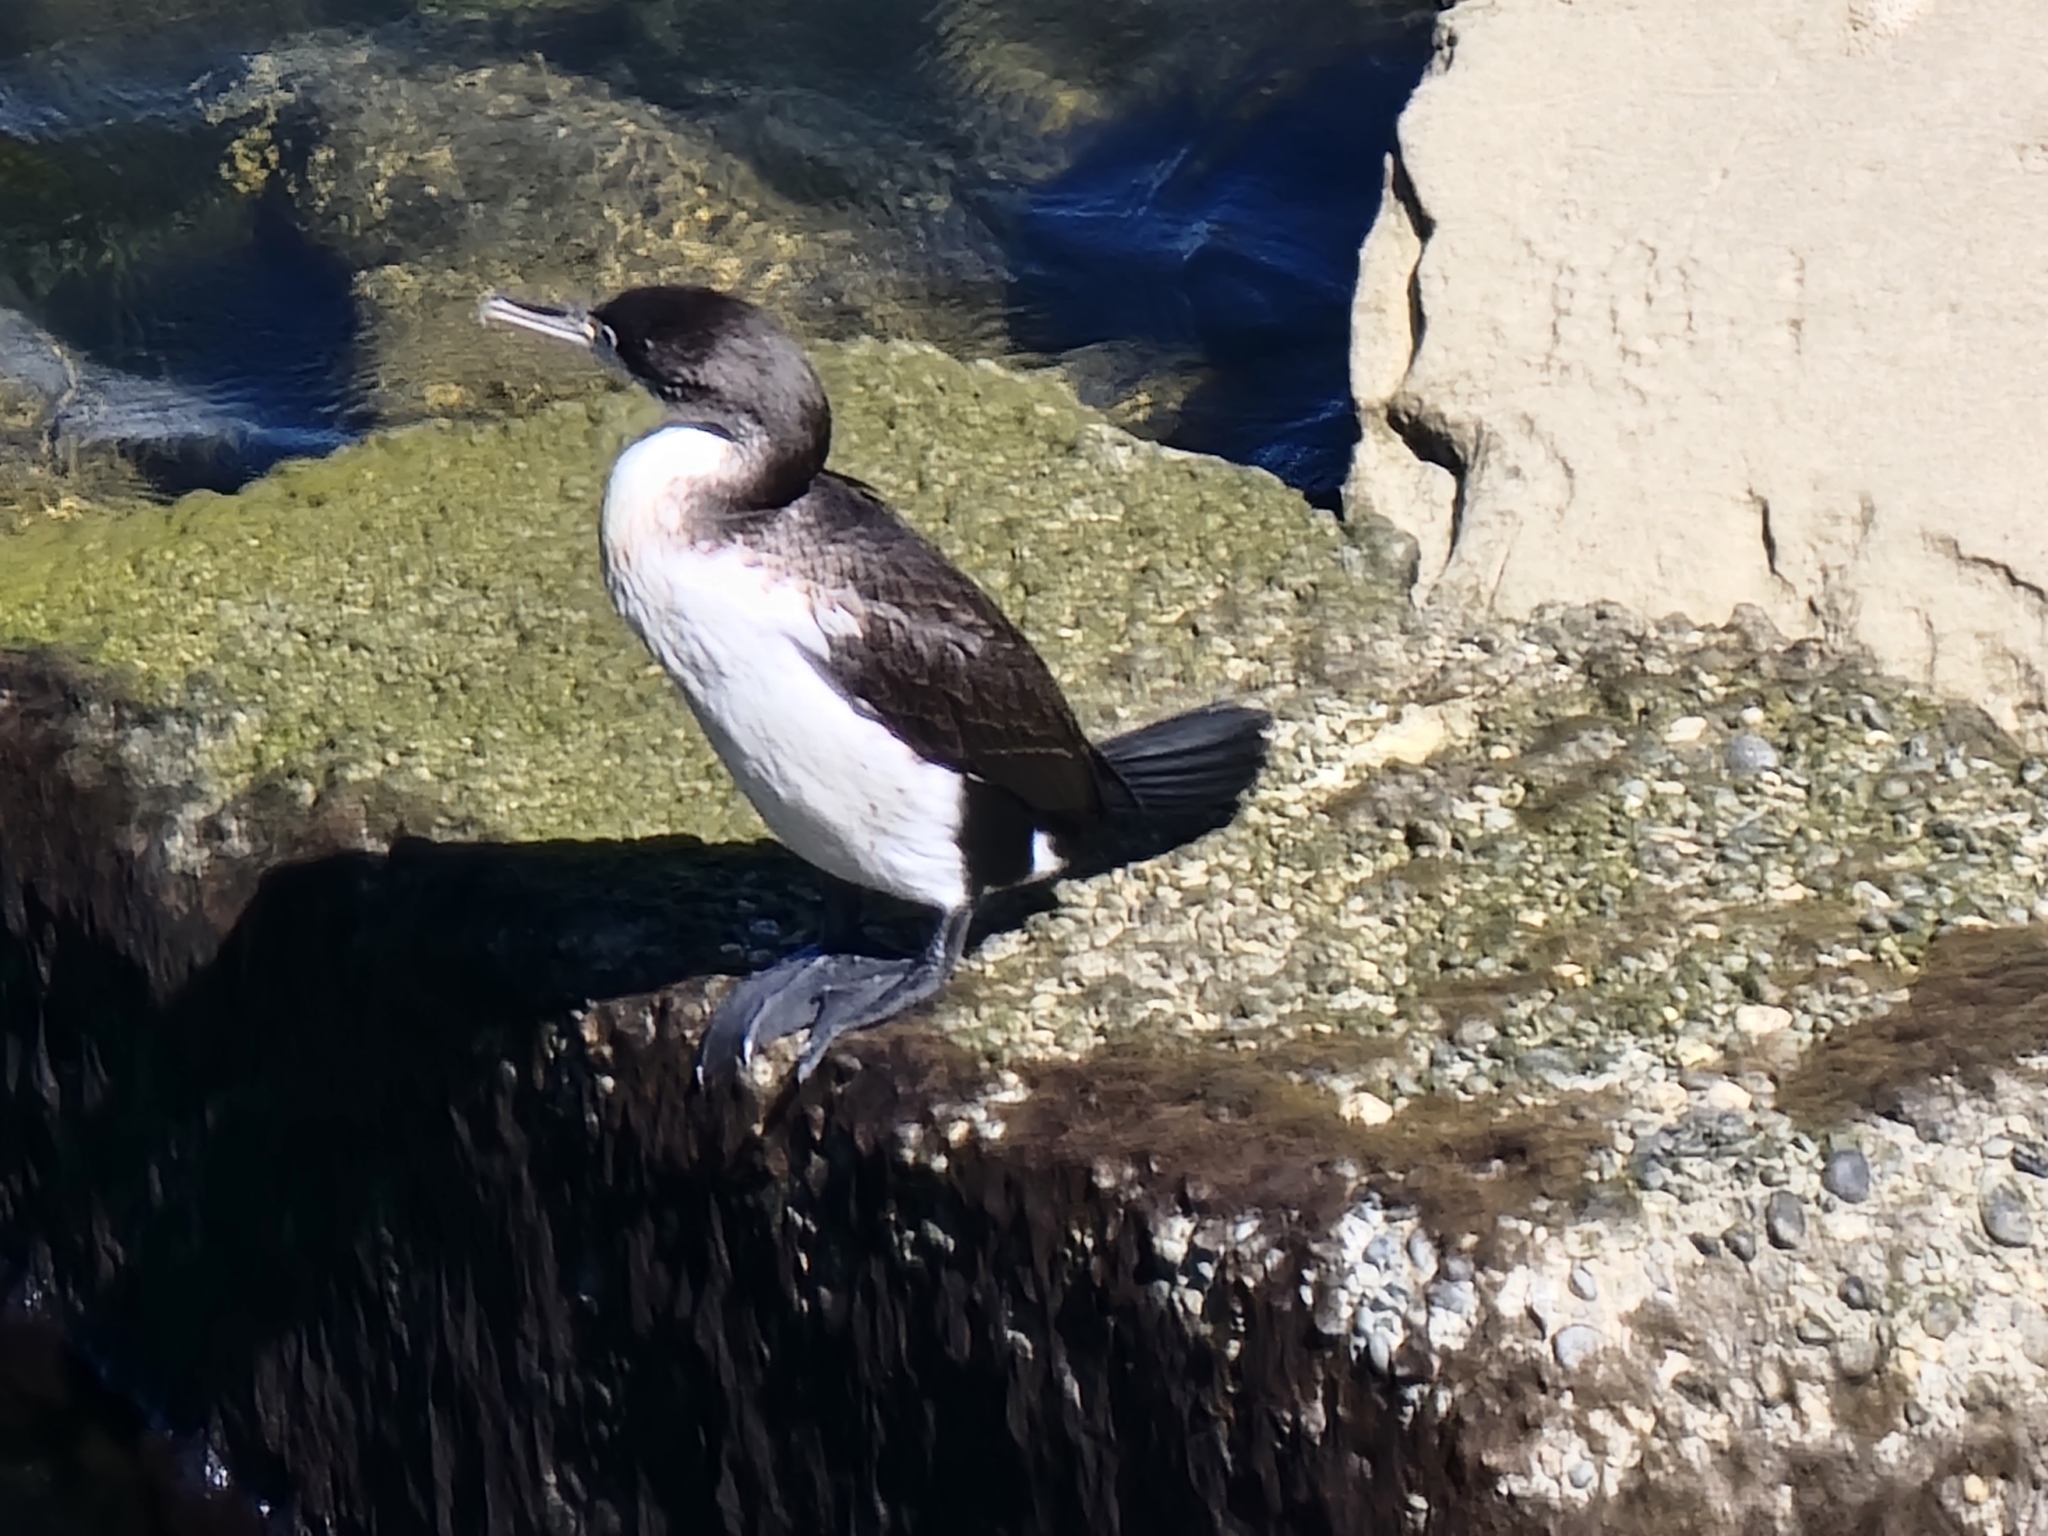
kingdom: Animalia
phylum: Chordata
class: Aves
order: Suliformes
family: Phalacrocoracidae
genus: Phalacrocorax
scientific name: Phalacrocorax varius
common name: Pied cormorant
